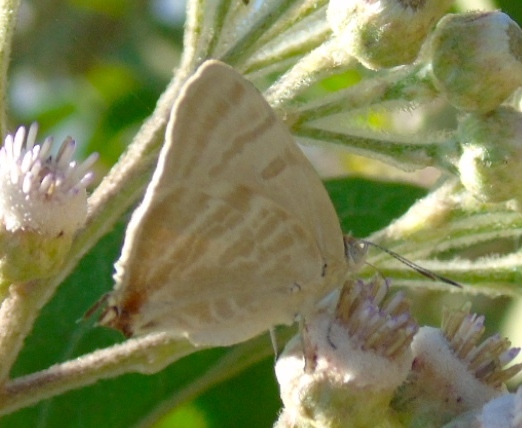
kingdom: Animalia
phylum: Arthropoda
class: Insecta
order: Lepidoptera
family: Lycaenidae
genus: Dolymorpha
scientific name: Dolymorpha jada
